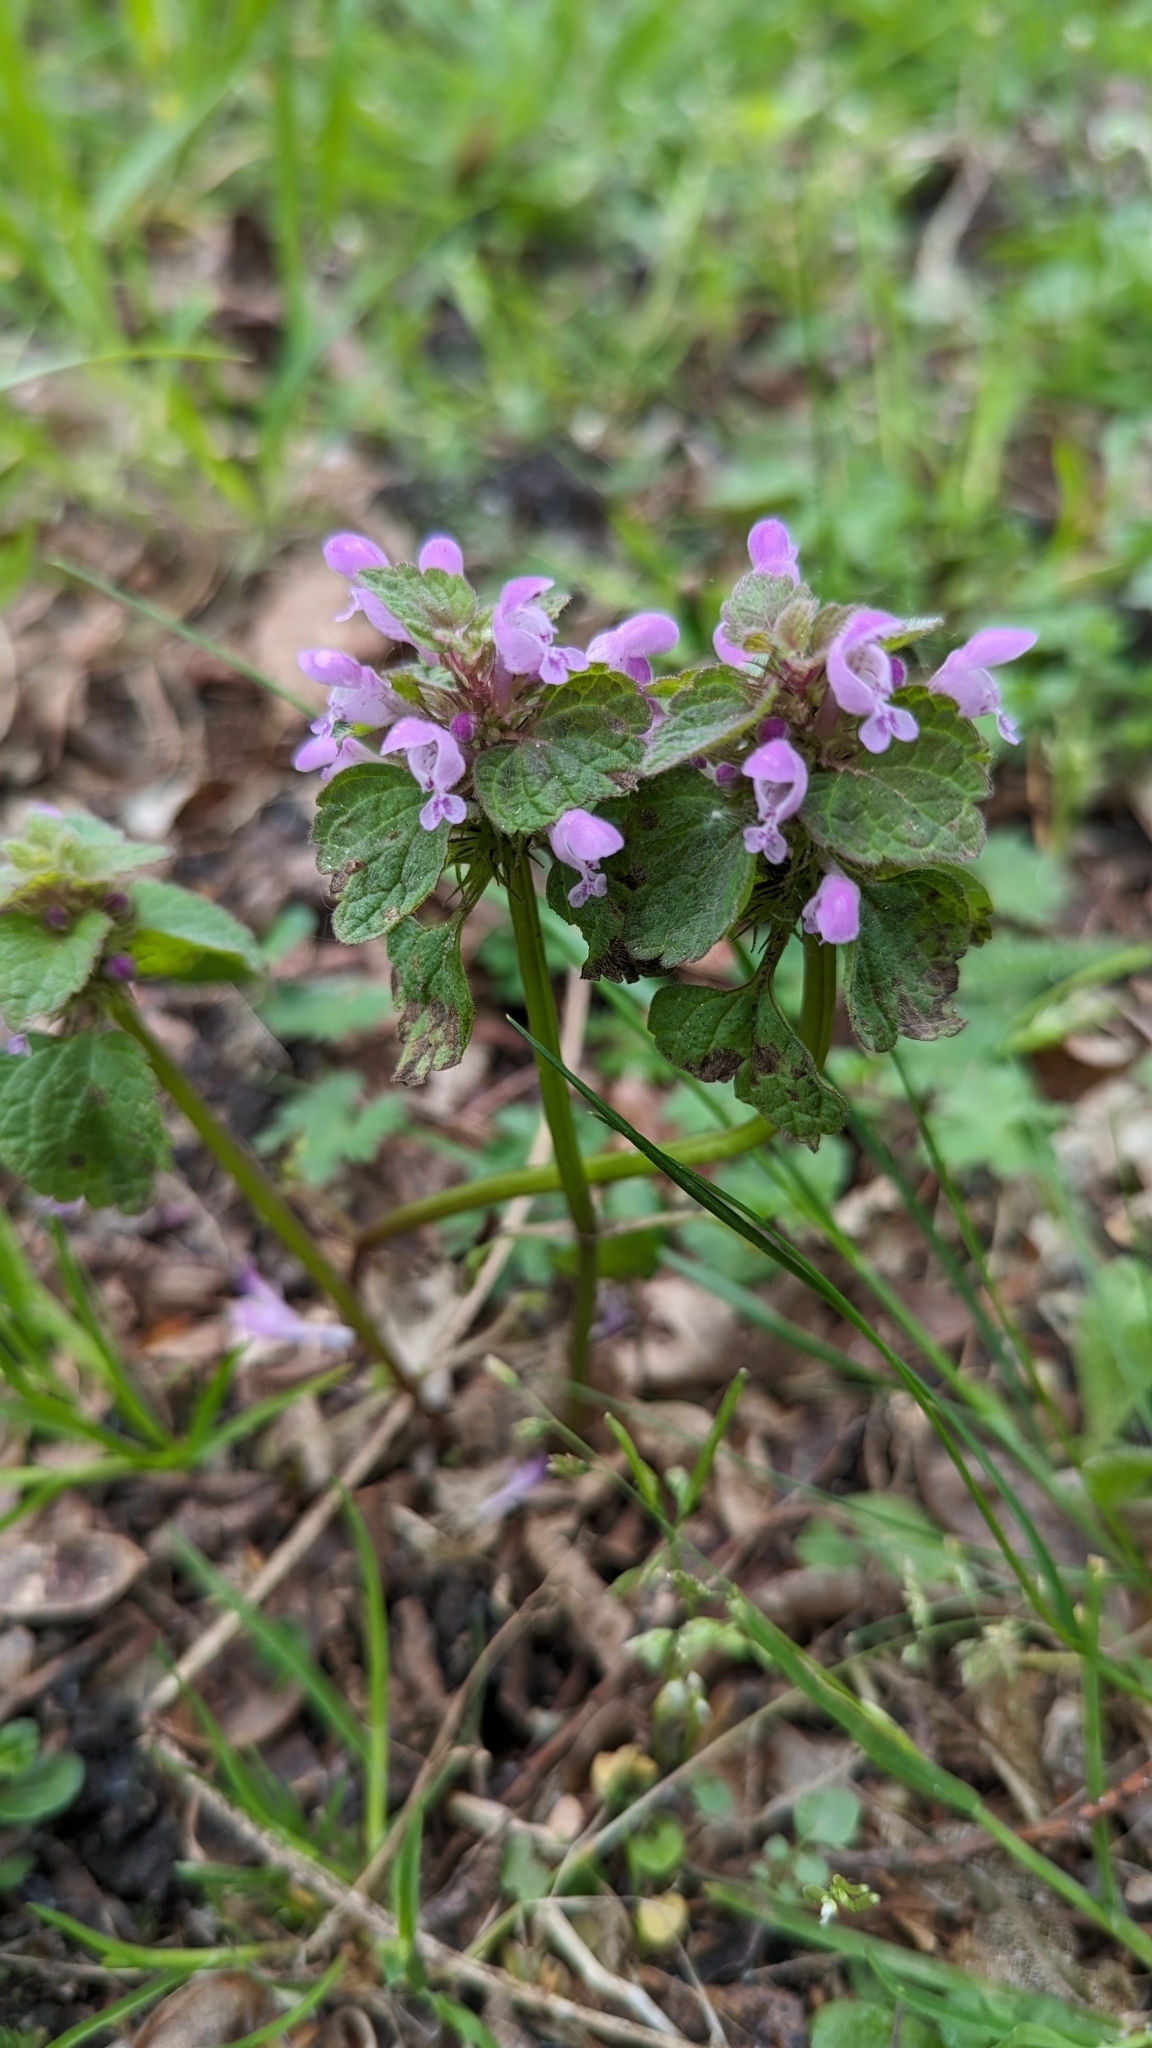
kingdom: Plantae
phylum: Tracheophyta
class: Magnoliopsida
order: Lamiales
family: Lamiaceae
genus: Lamium
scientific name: Lamium purpureum
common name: Red dead-nettle
